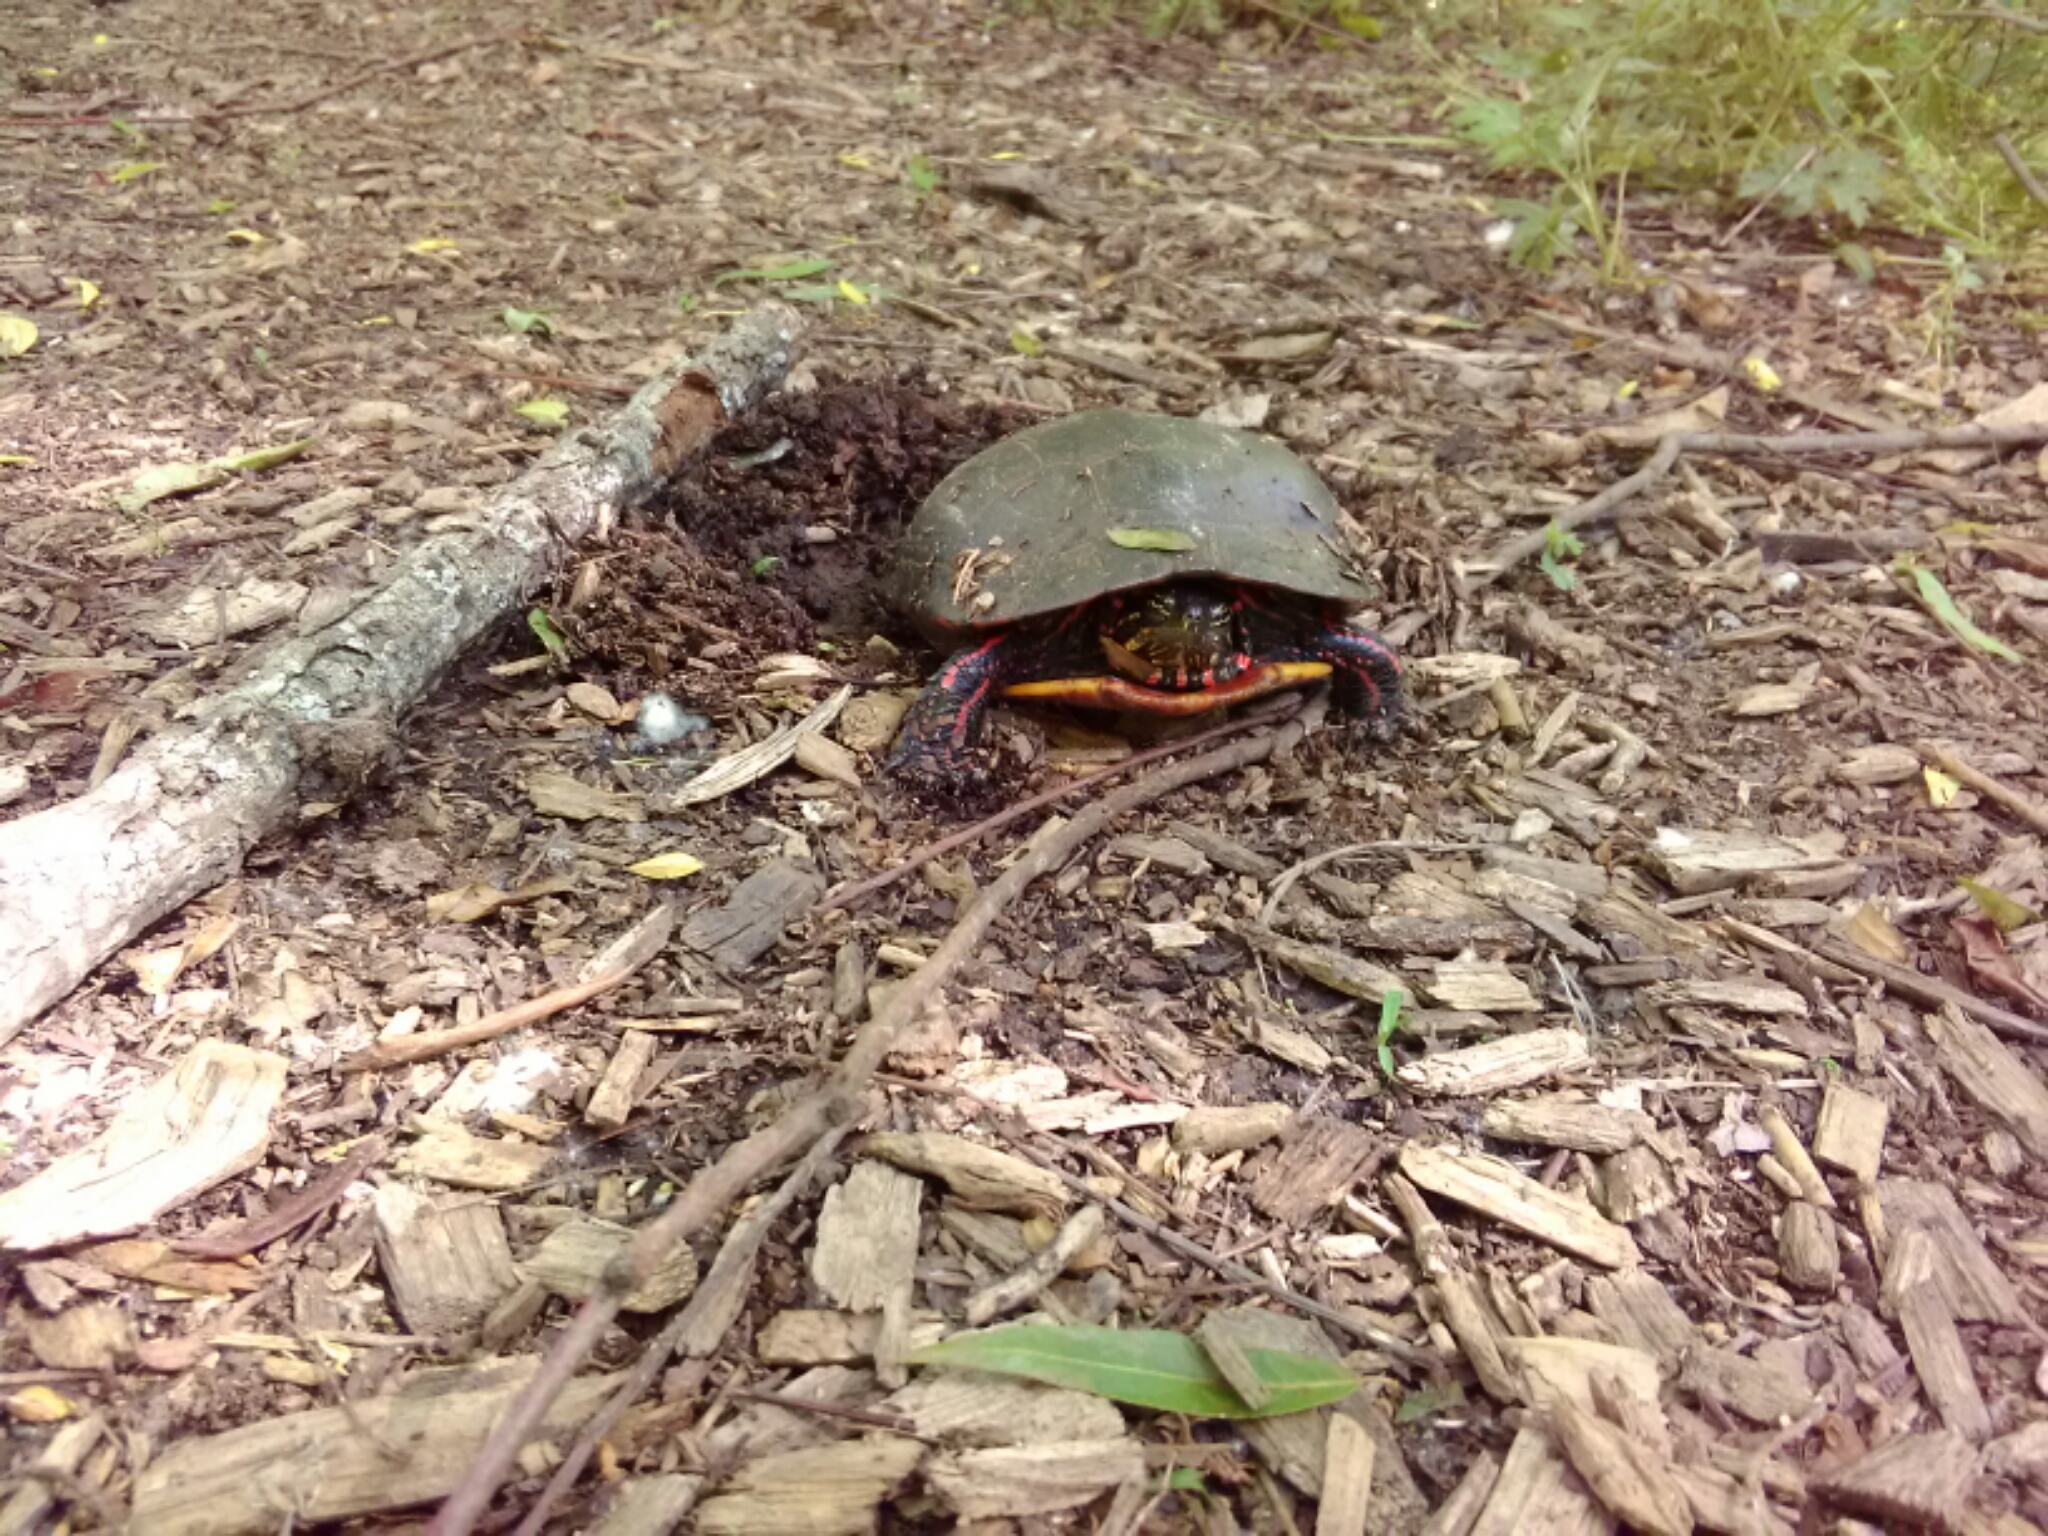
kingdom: Animalia
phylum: Chordata
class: Testudines
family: Emydidae
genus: Chrysemys
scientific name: Chrysemys picta
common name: Painted turtle
